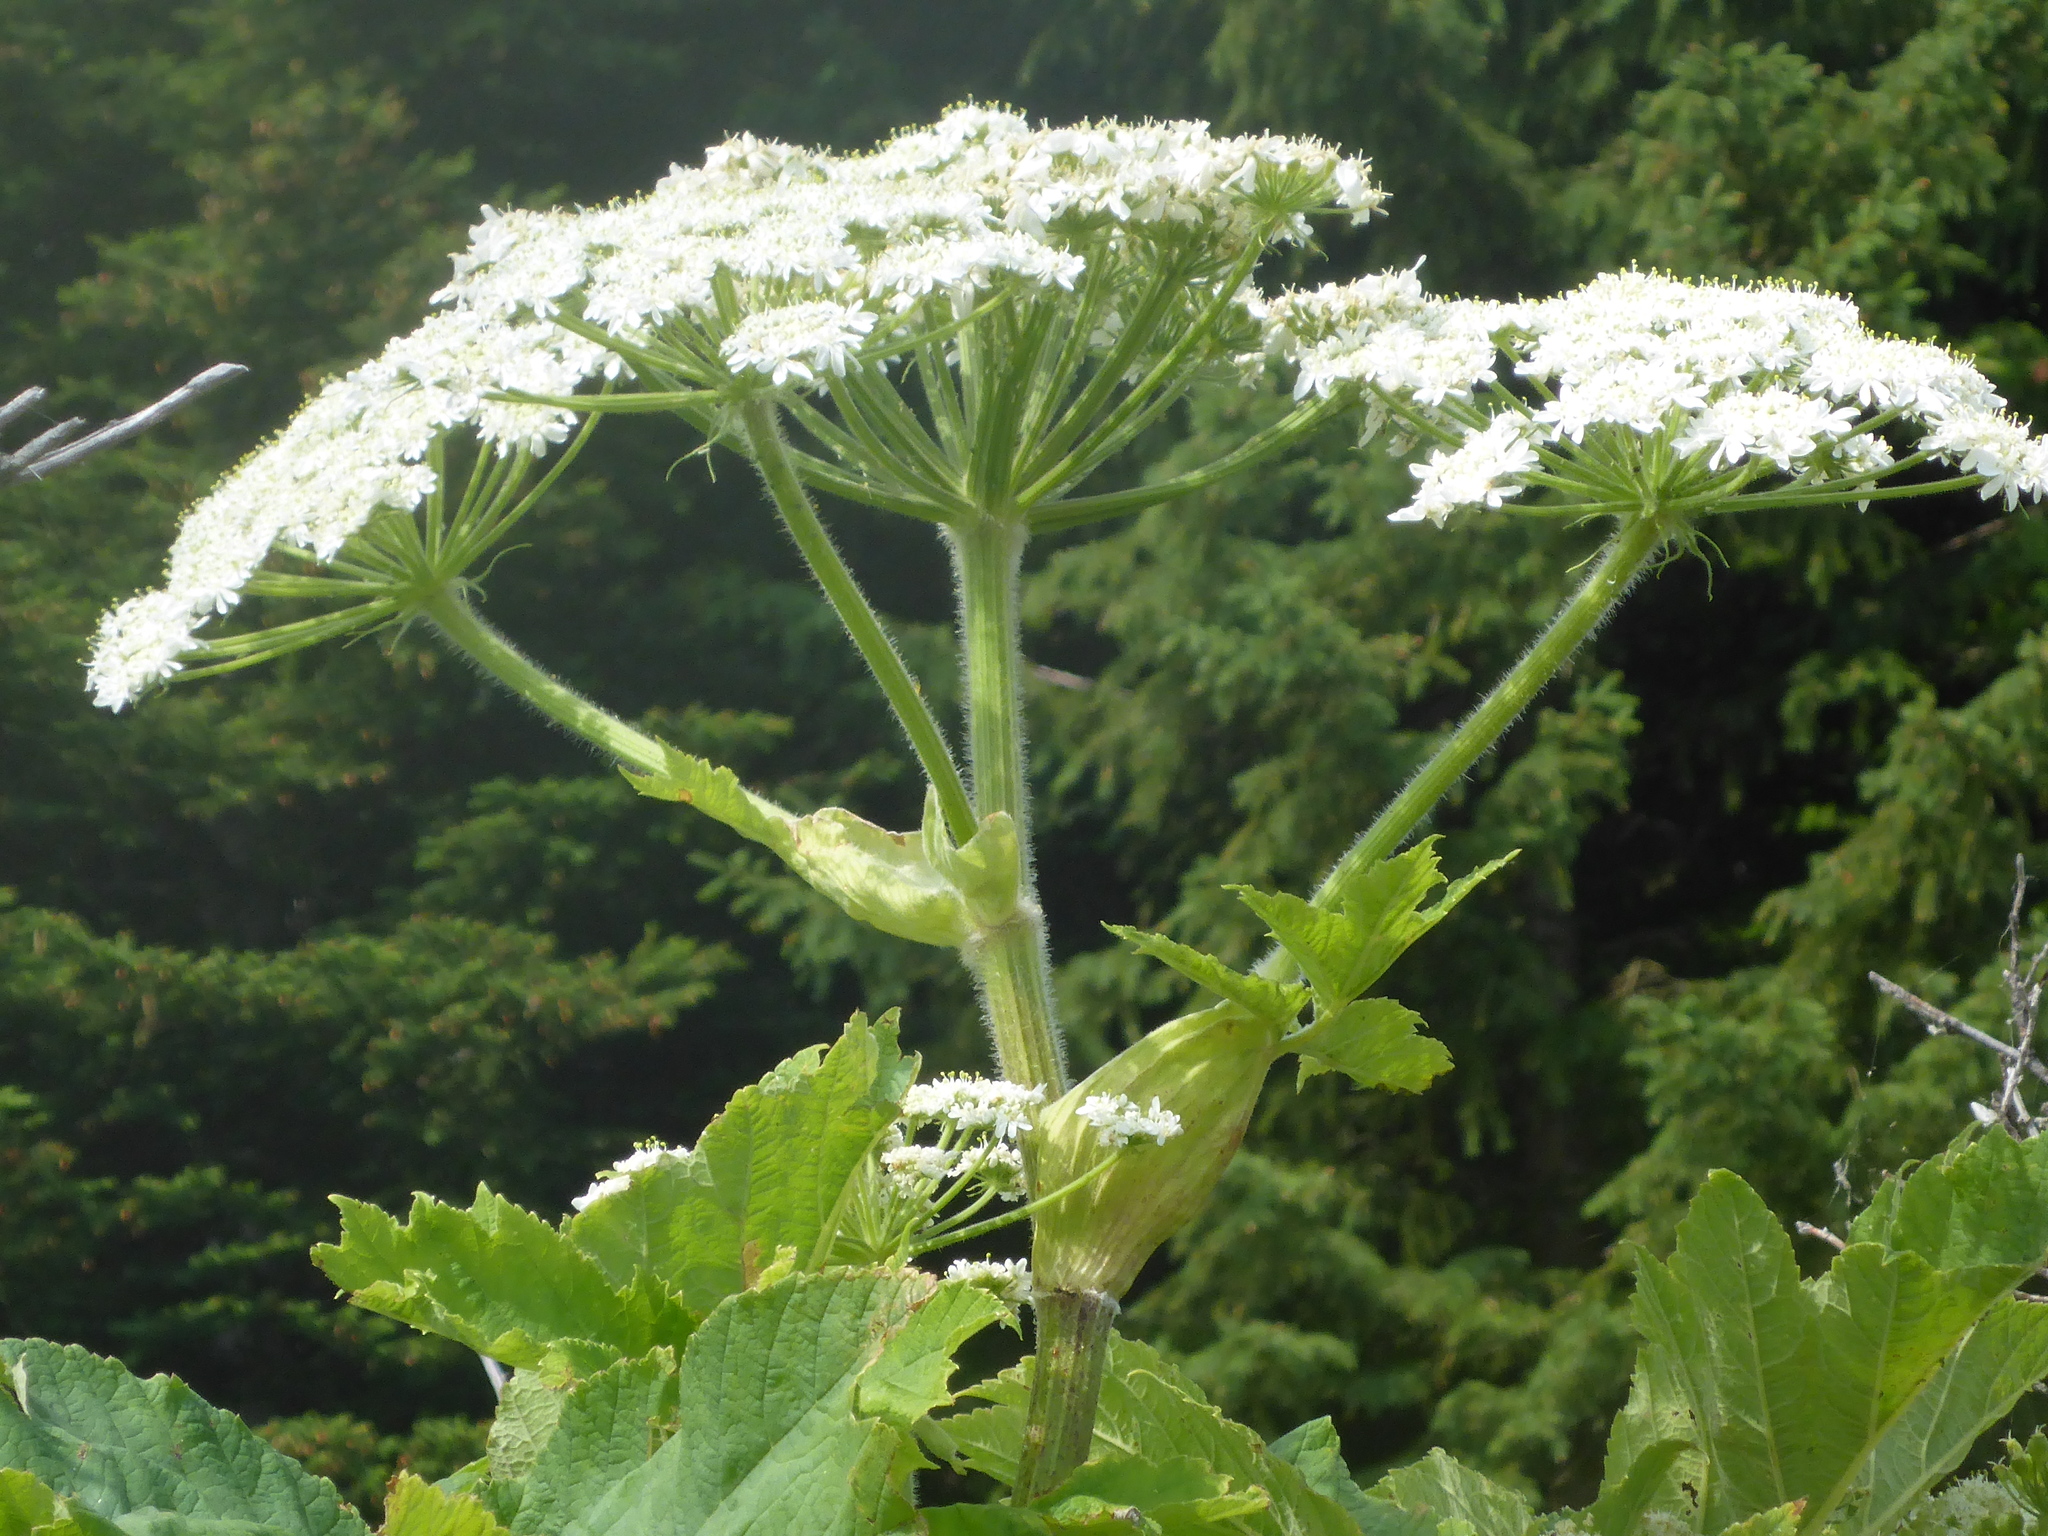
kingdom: Plantae
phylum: Tracheophyta
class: Magnoliopsida
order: Apiales
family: Apiaceae
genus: Heracleum
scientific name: Heracleum maximum
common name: American cow parsnip
